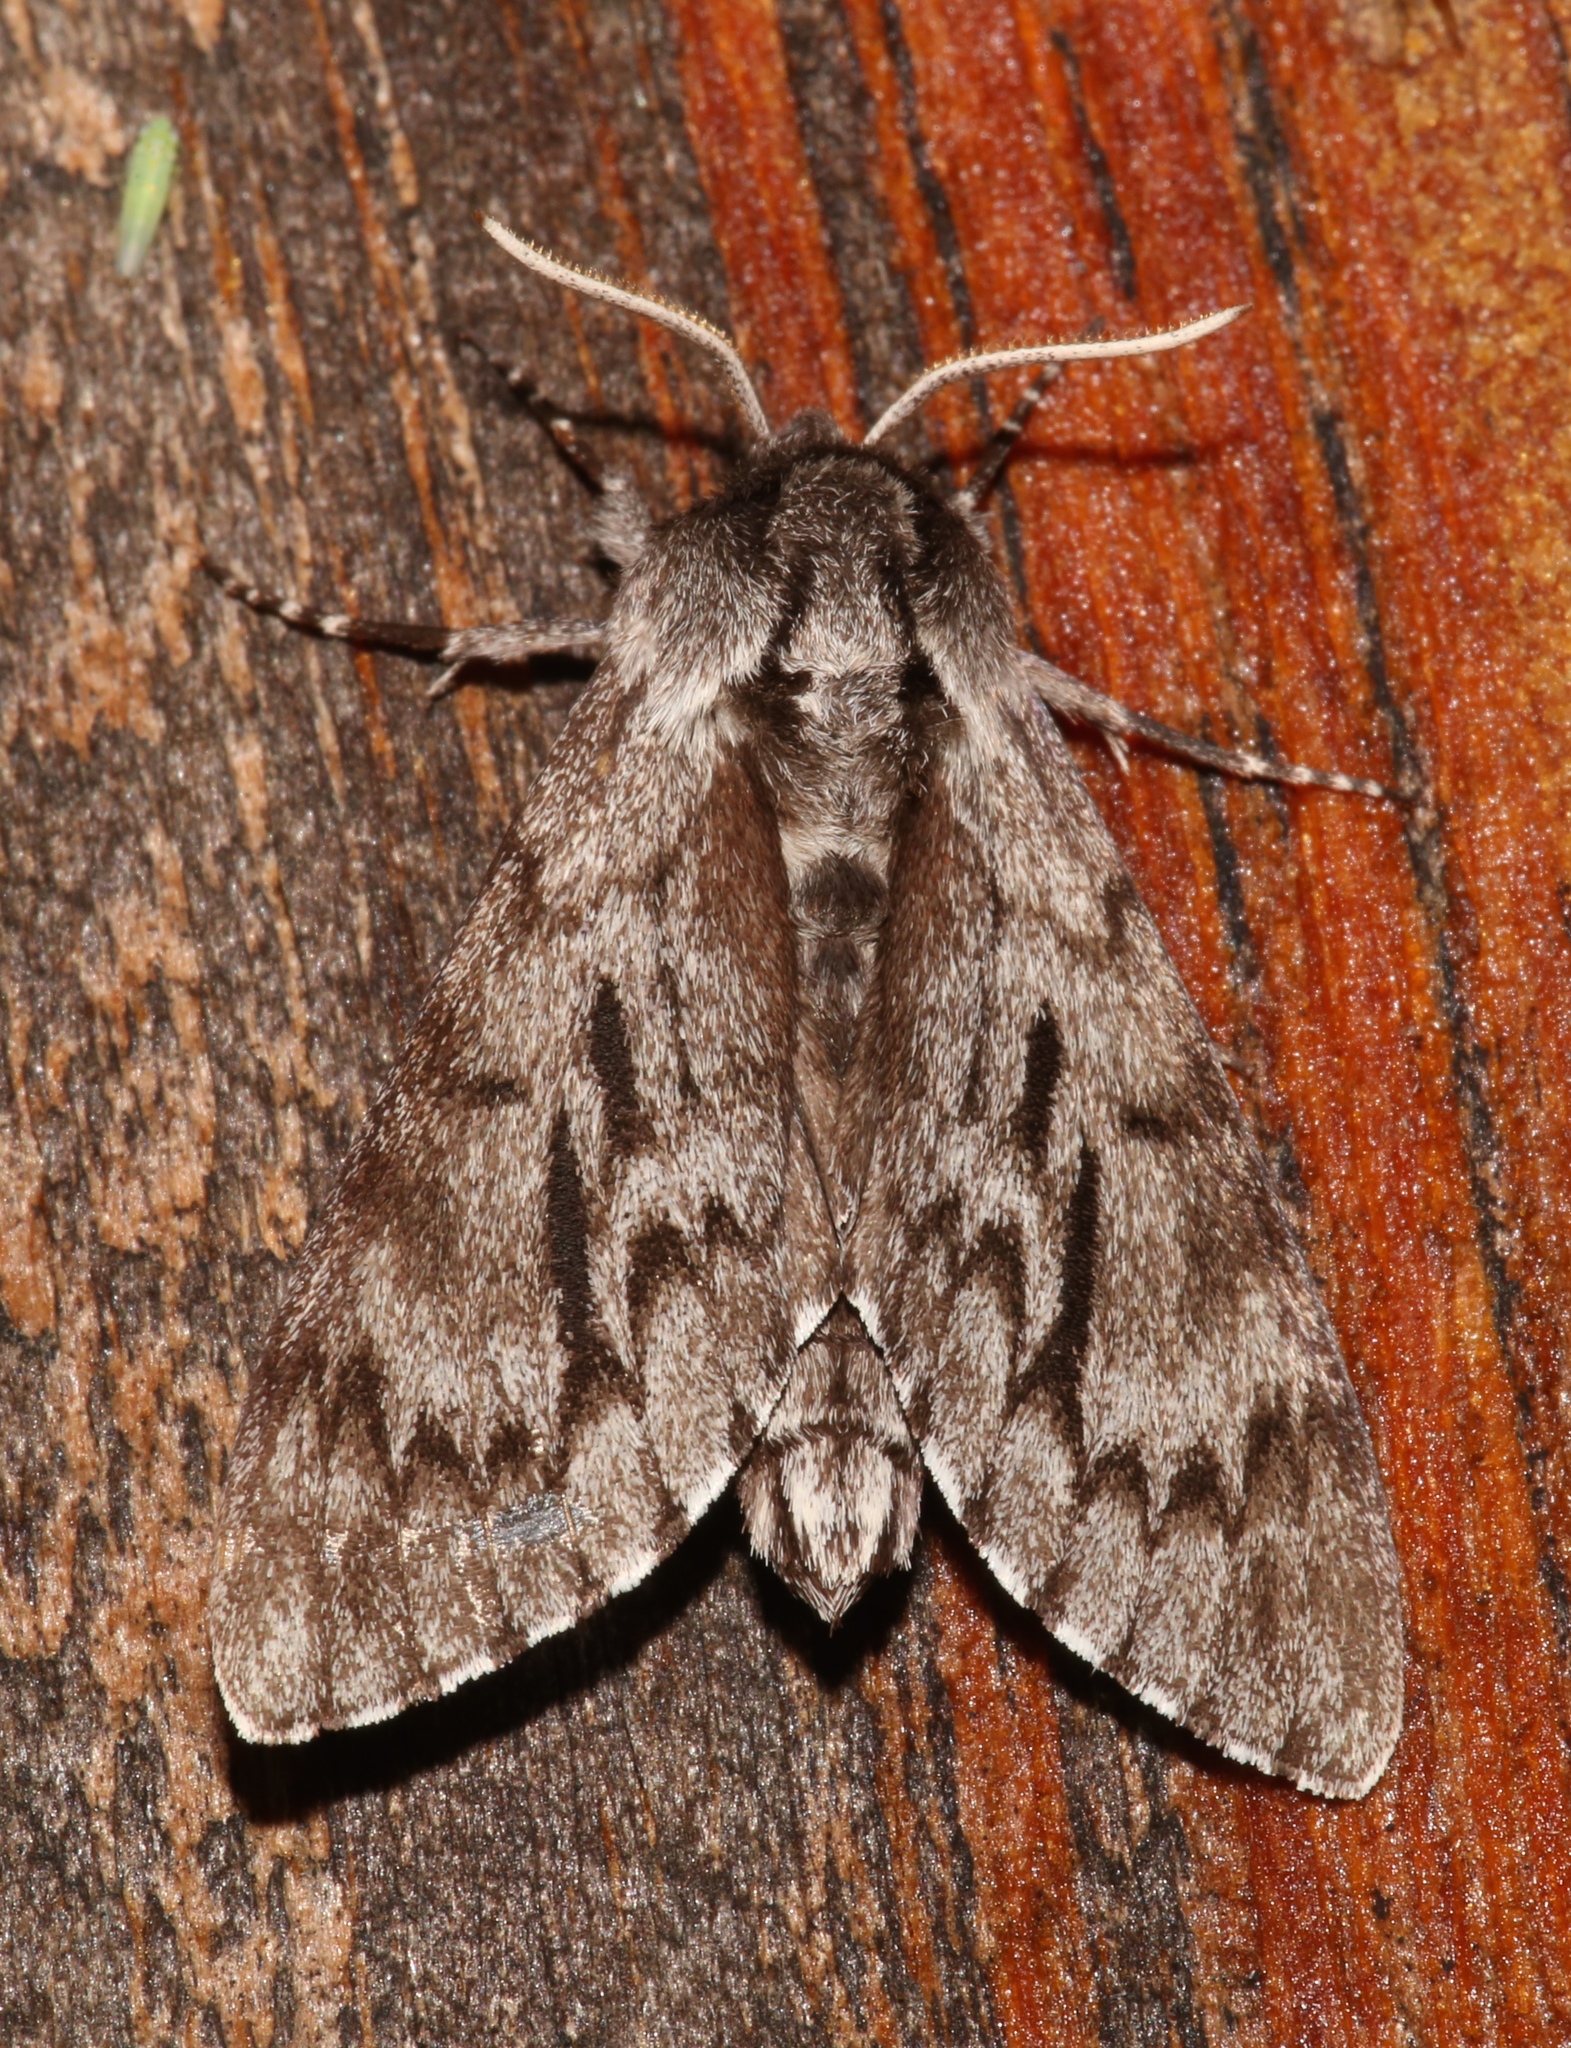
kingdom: Animalia
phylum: Arthropoda
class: Insecta
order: Lepidoptera
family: Sphingidae
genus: Lapara
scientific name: Lapara bombycoides
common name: Northern pine sphinx
